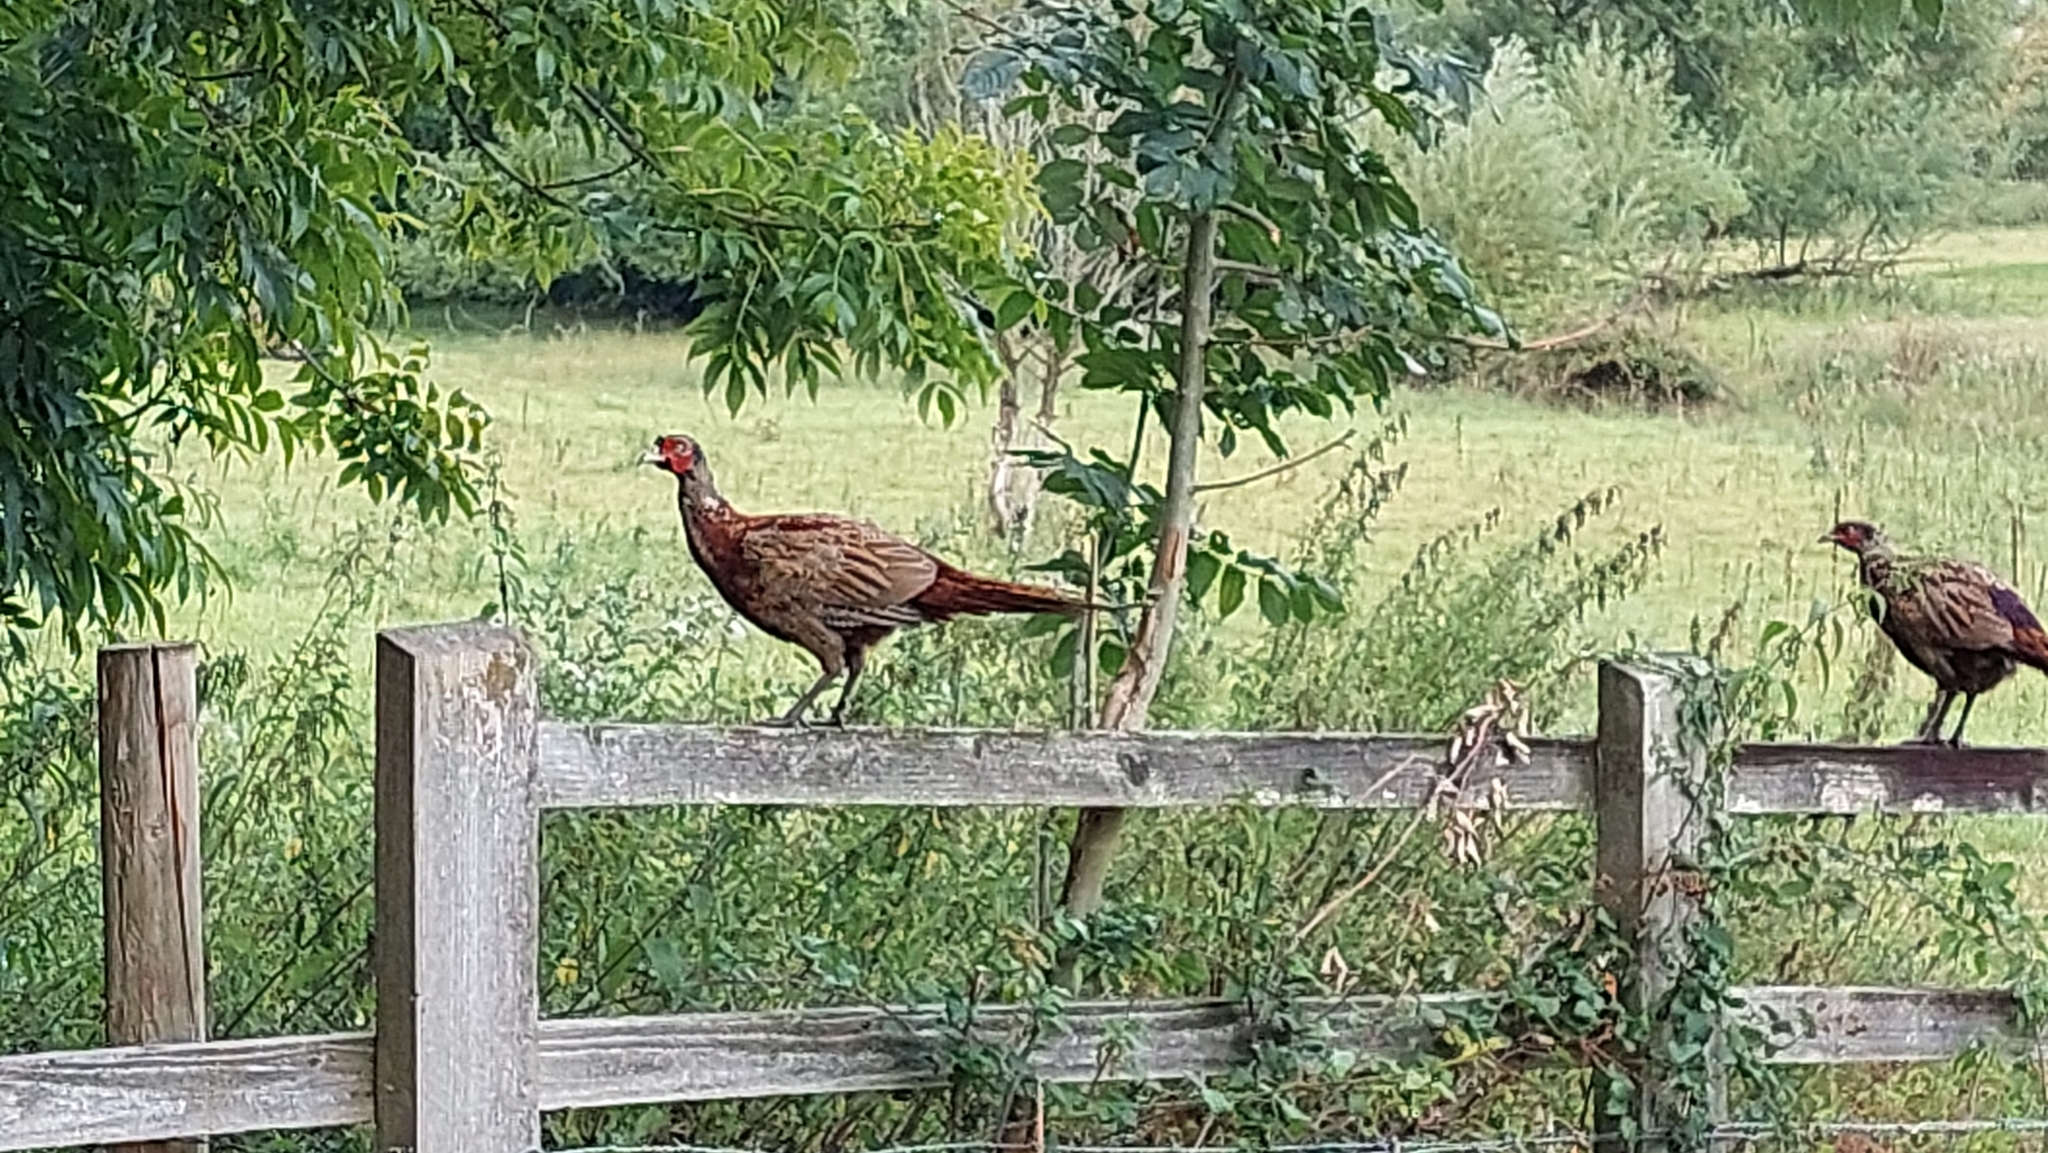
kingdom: Animalia
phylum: Chordata
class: Aves
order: Galliformes
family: Phasianidae
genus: Phasianus
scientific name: Phasianus colchicus
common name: Common pheasant
